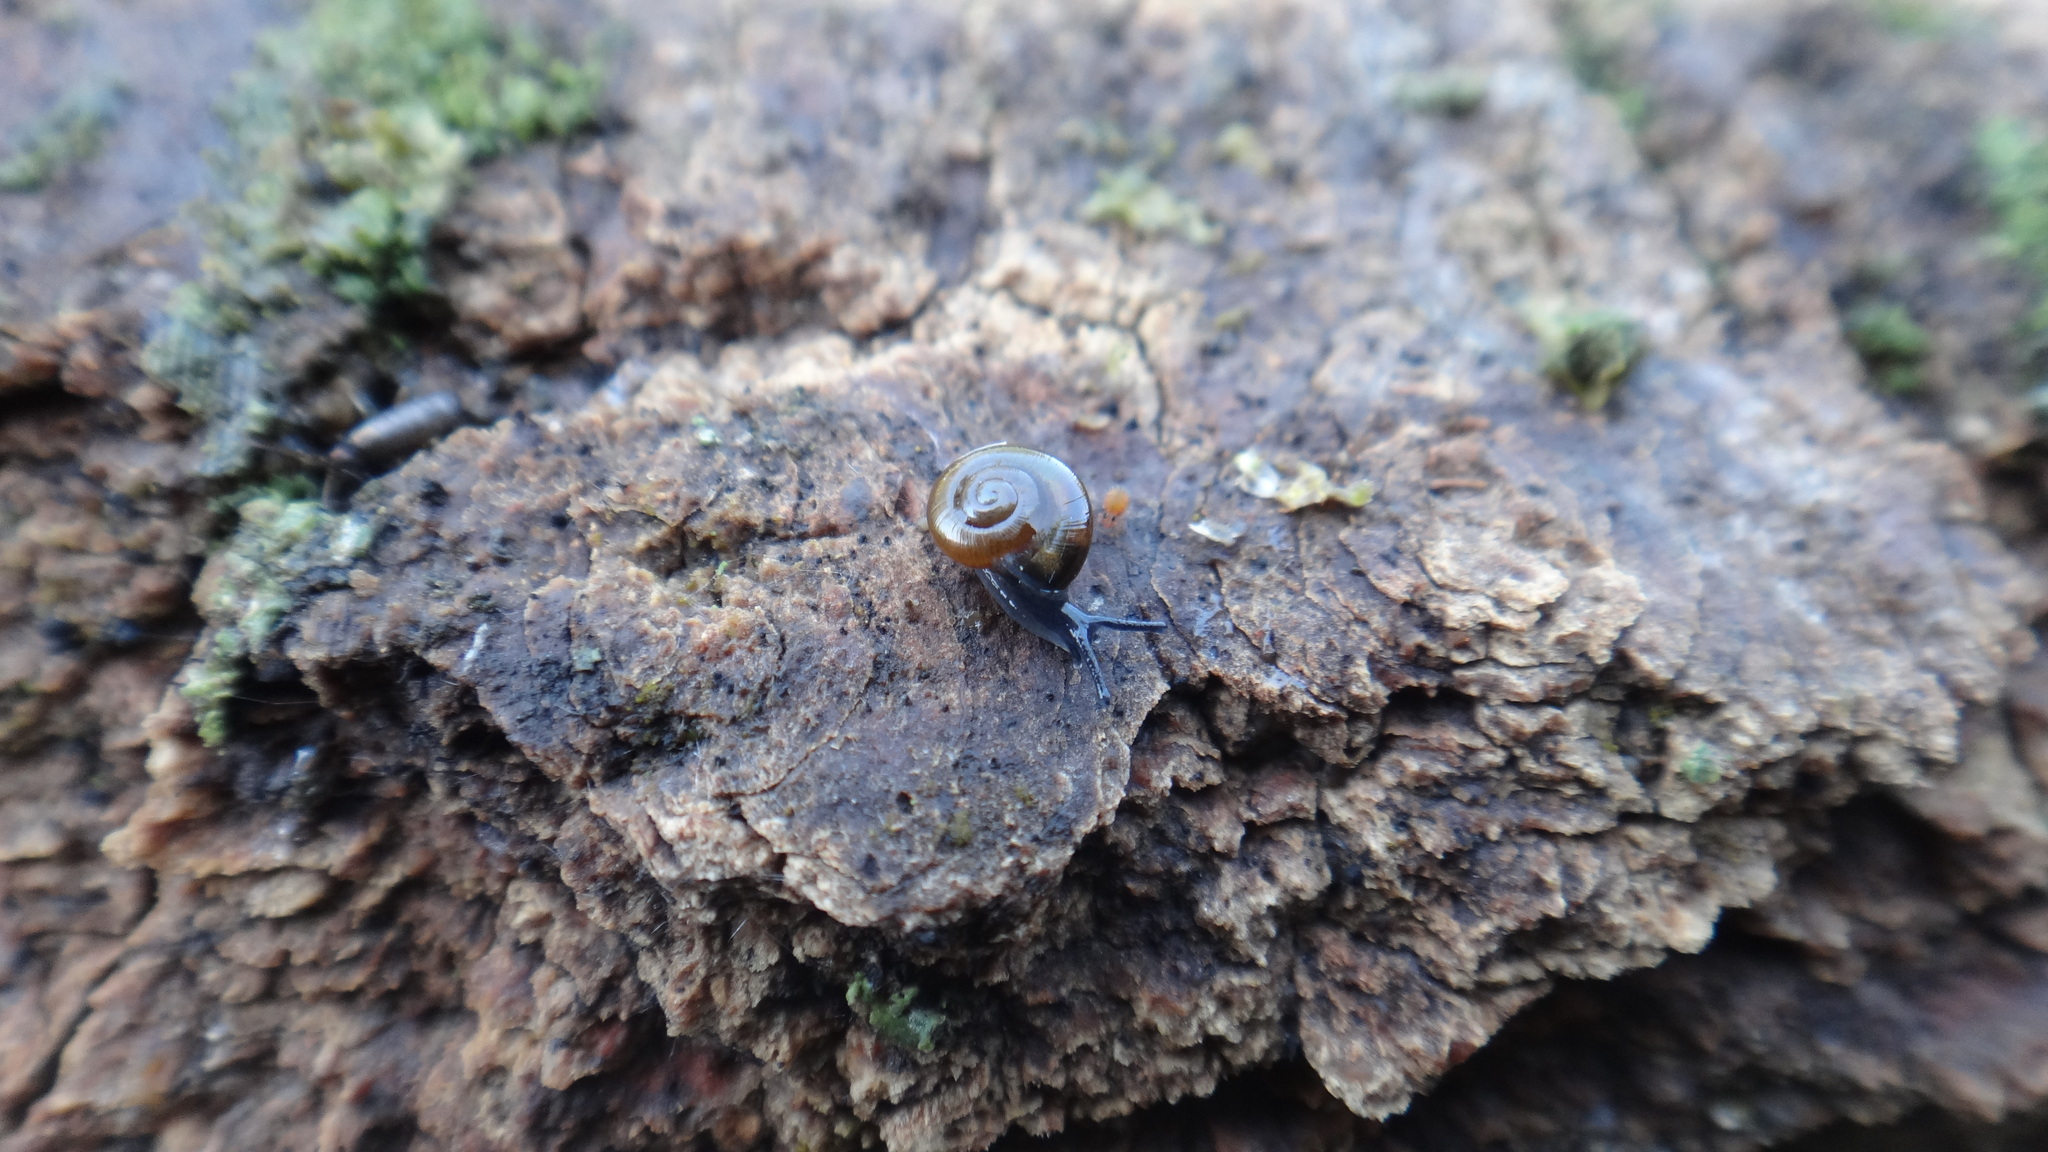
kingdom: Animalia
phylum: Mollusca
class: Gastropoda
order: Stylommatophora
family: Gastrodontidae
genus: Aegopinella
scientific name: Aegopinella minor
